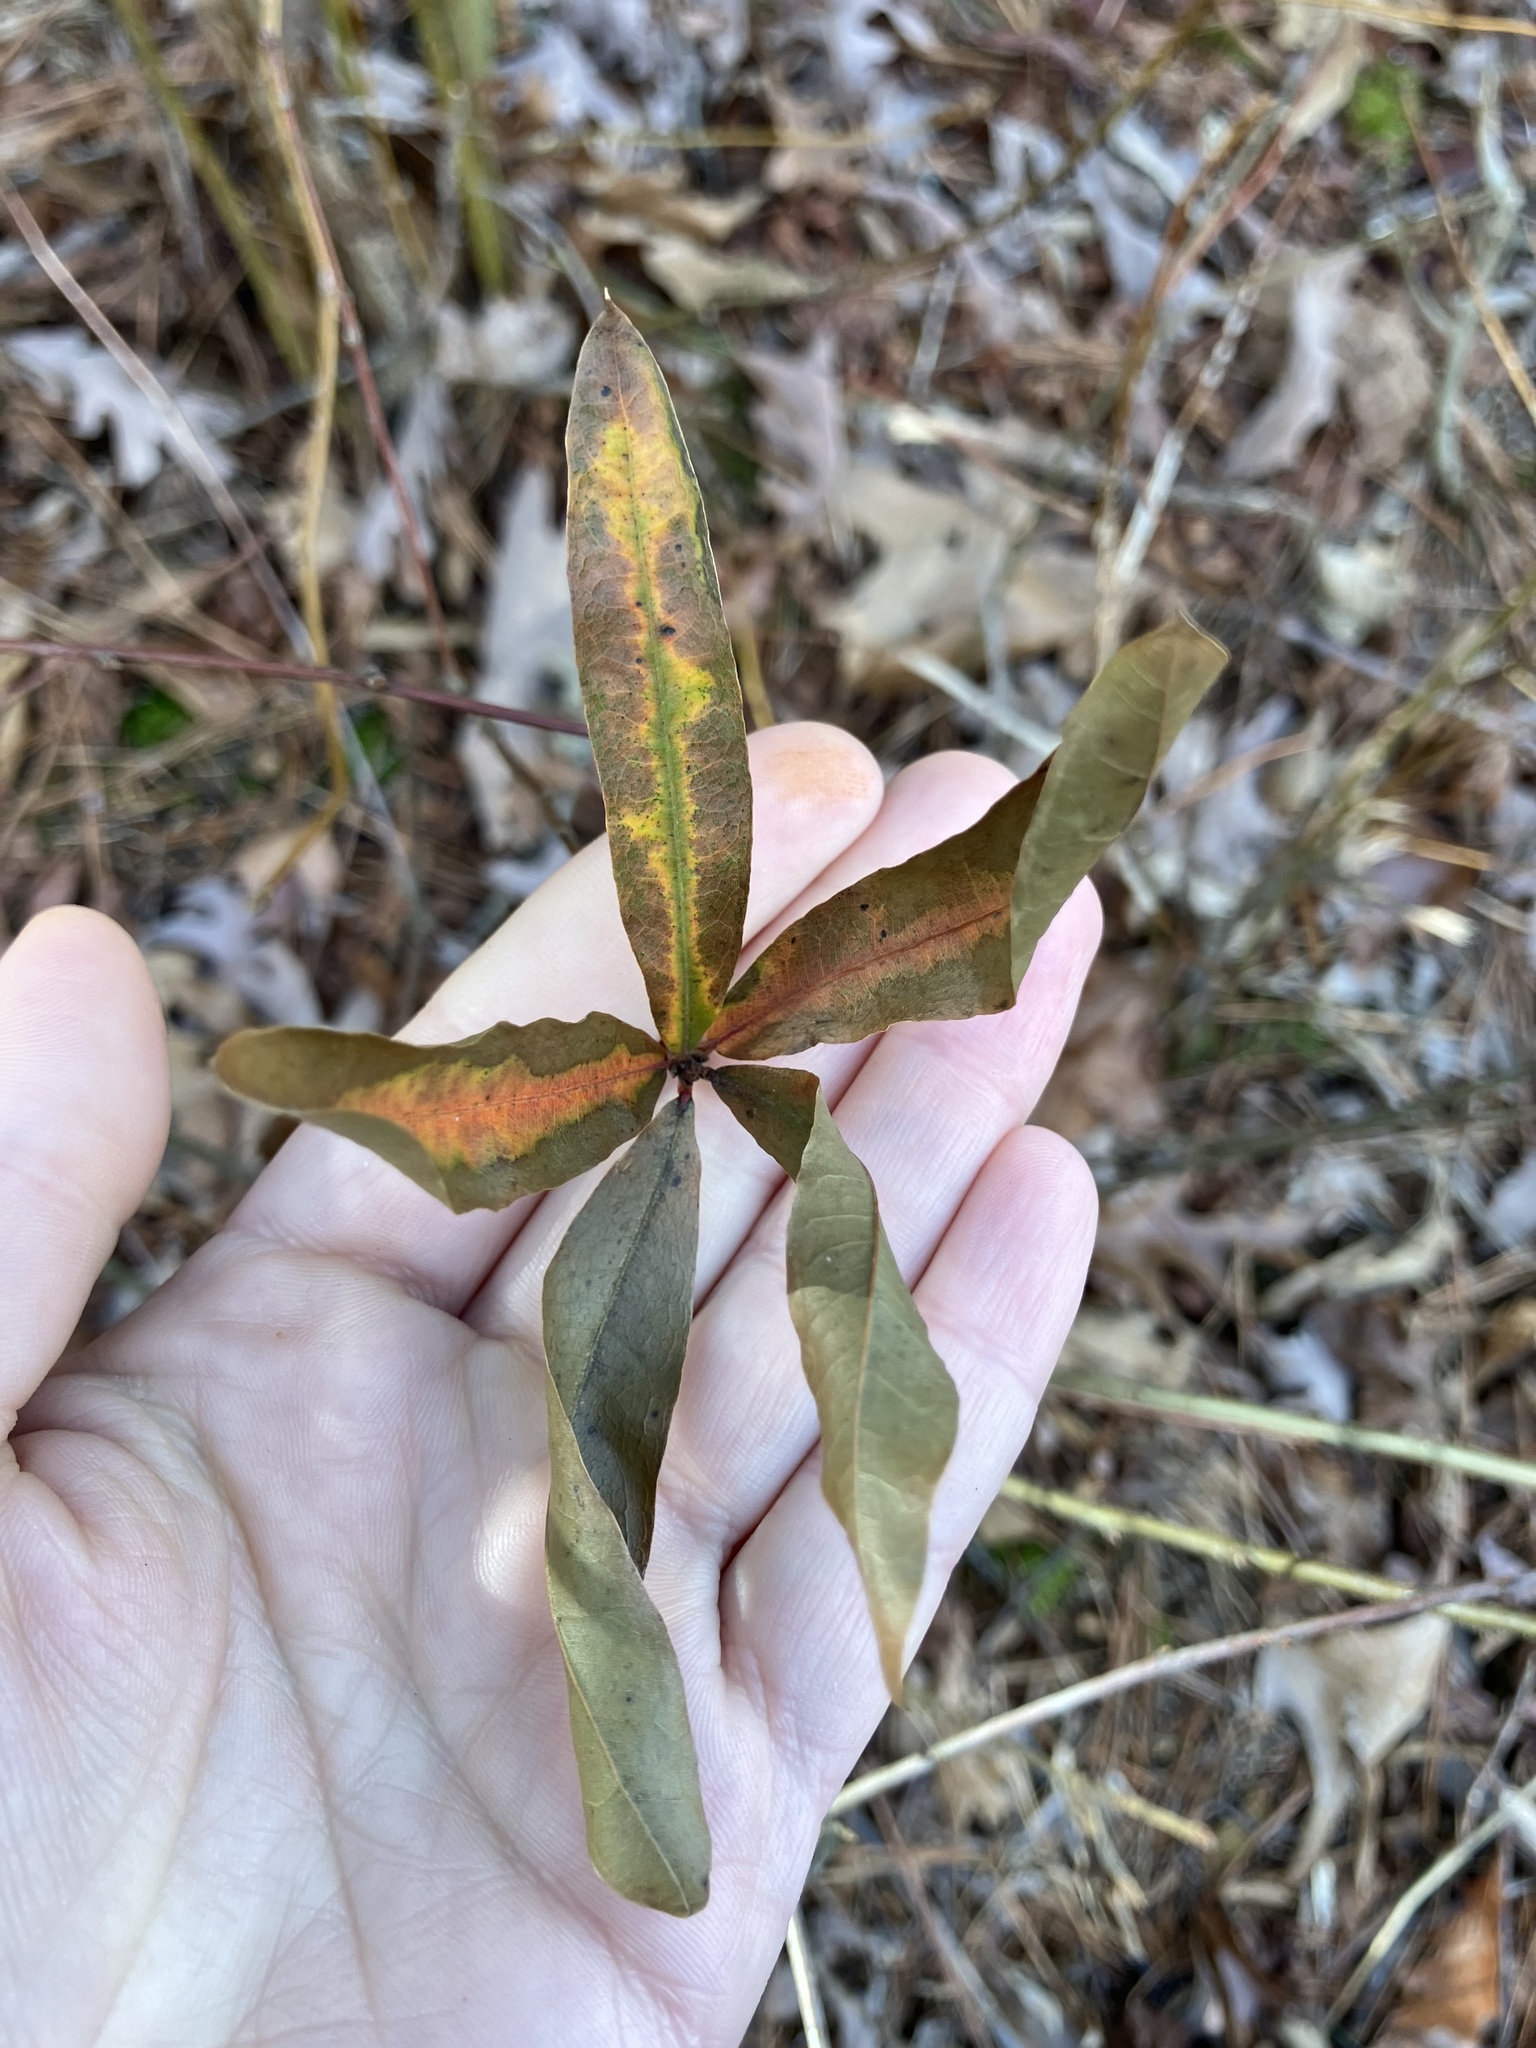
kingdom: Plantae
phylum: Tracheophyta
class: Magnoliopsida
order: Fagales
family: Fagaceae
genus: Quercus
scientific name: Quercus phellos
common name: Willow oak
